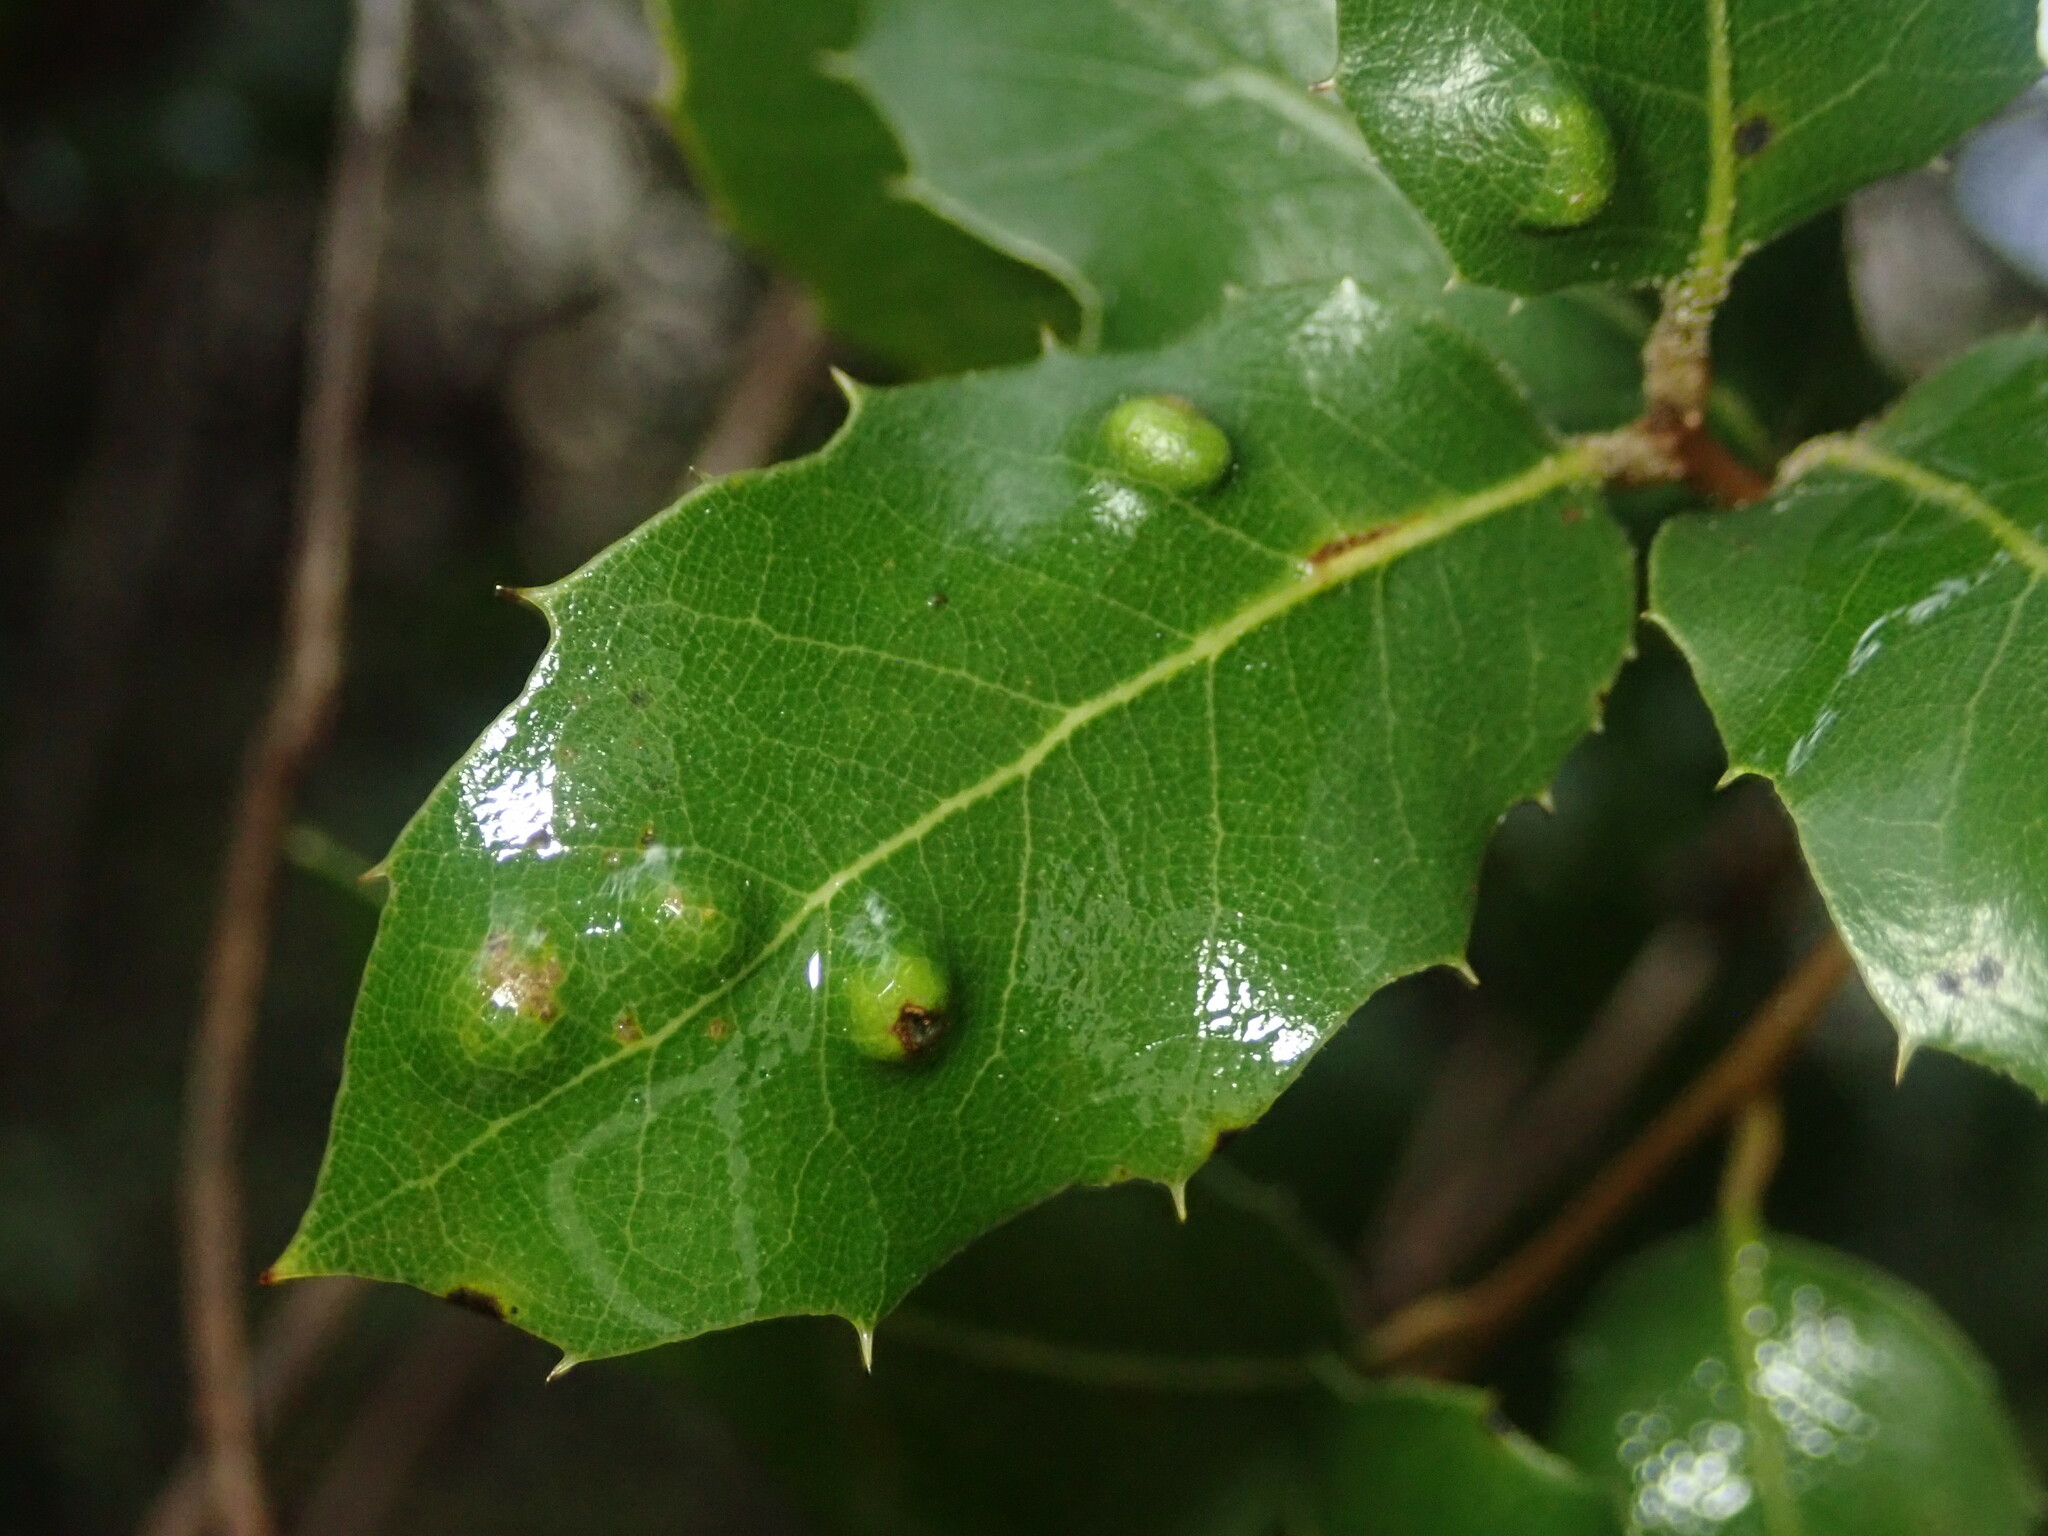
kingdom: Animalia
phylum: Arthropoda
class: Arachnida
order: Trombidiformes
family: Eriophyidae
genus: Aceria
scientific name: Aceria
